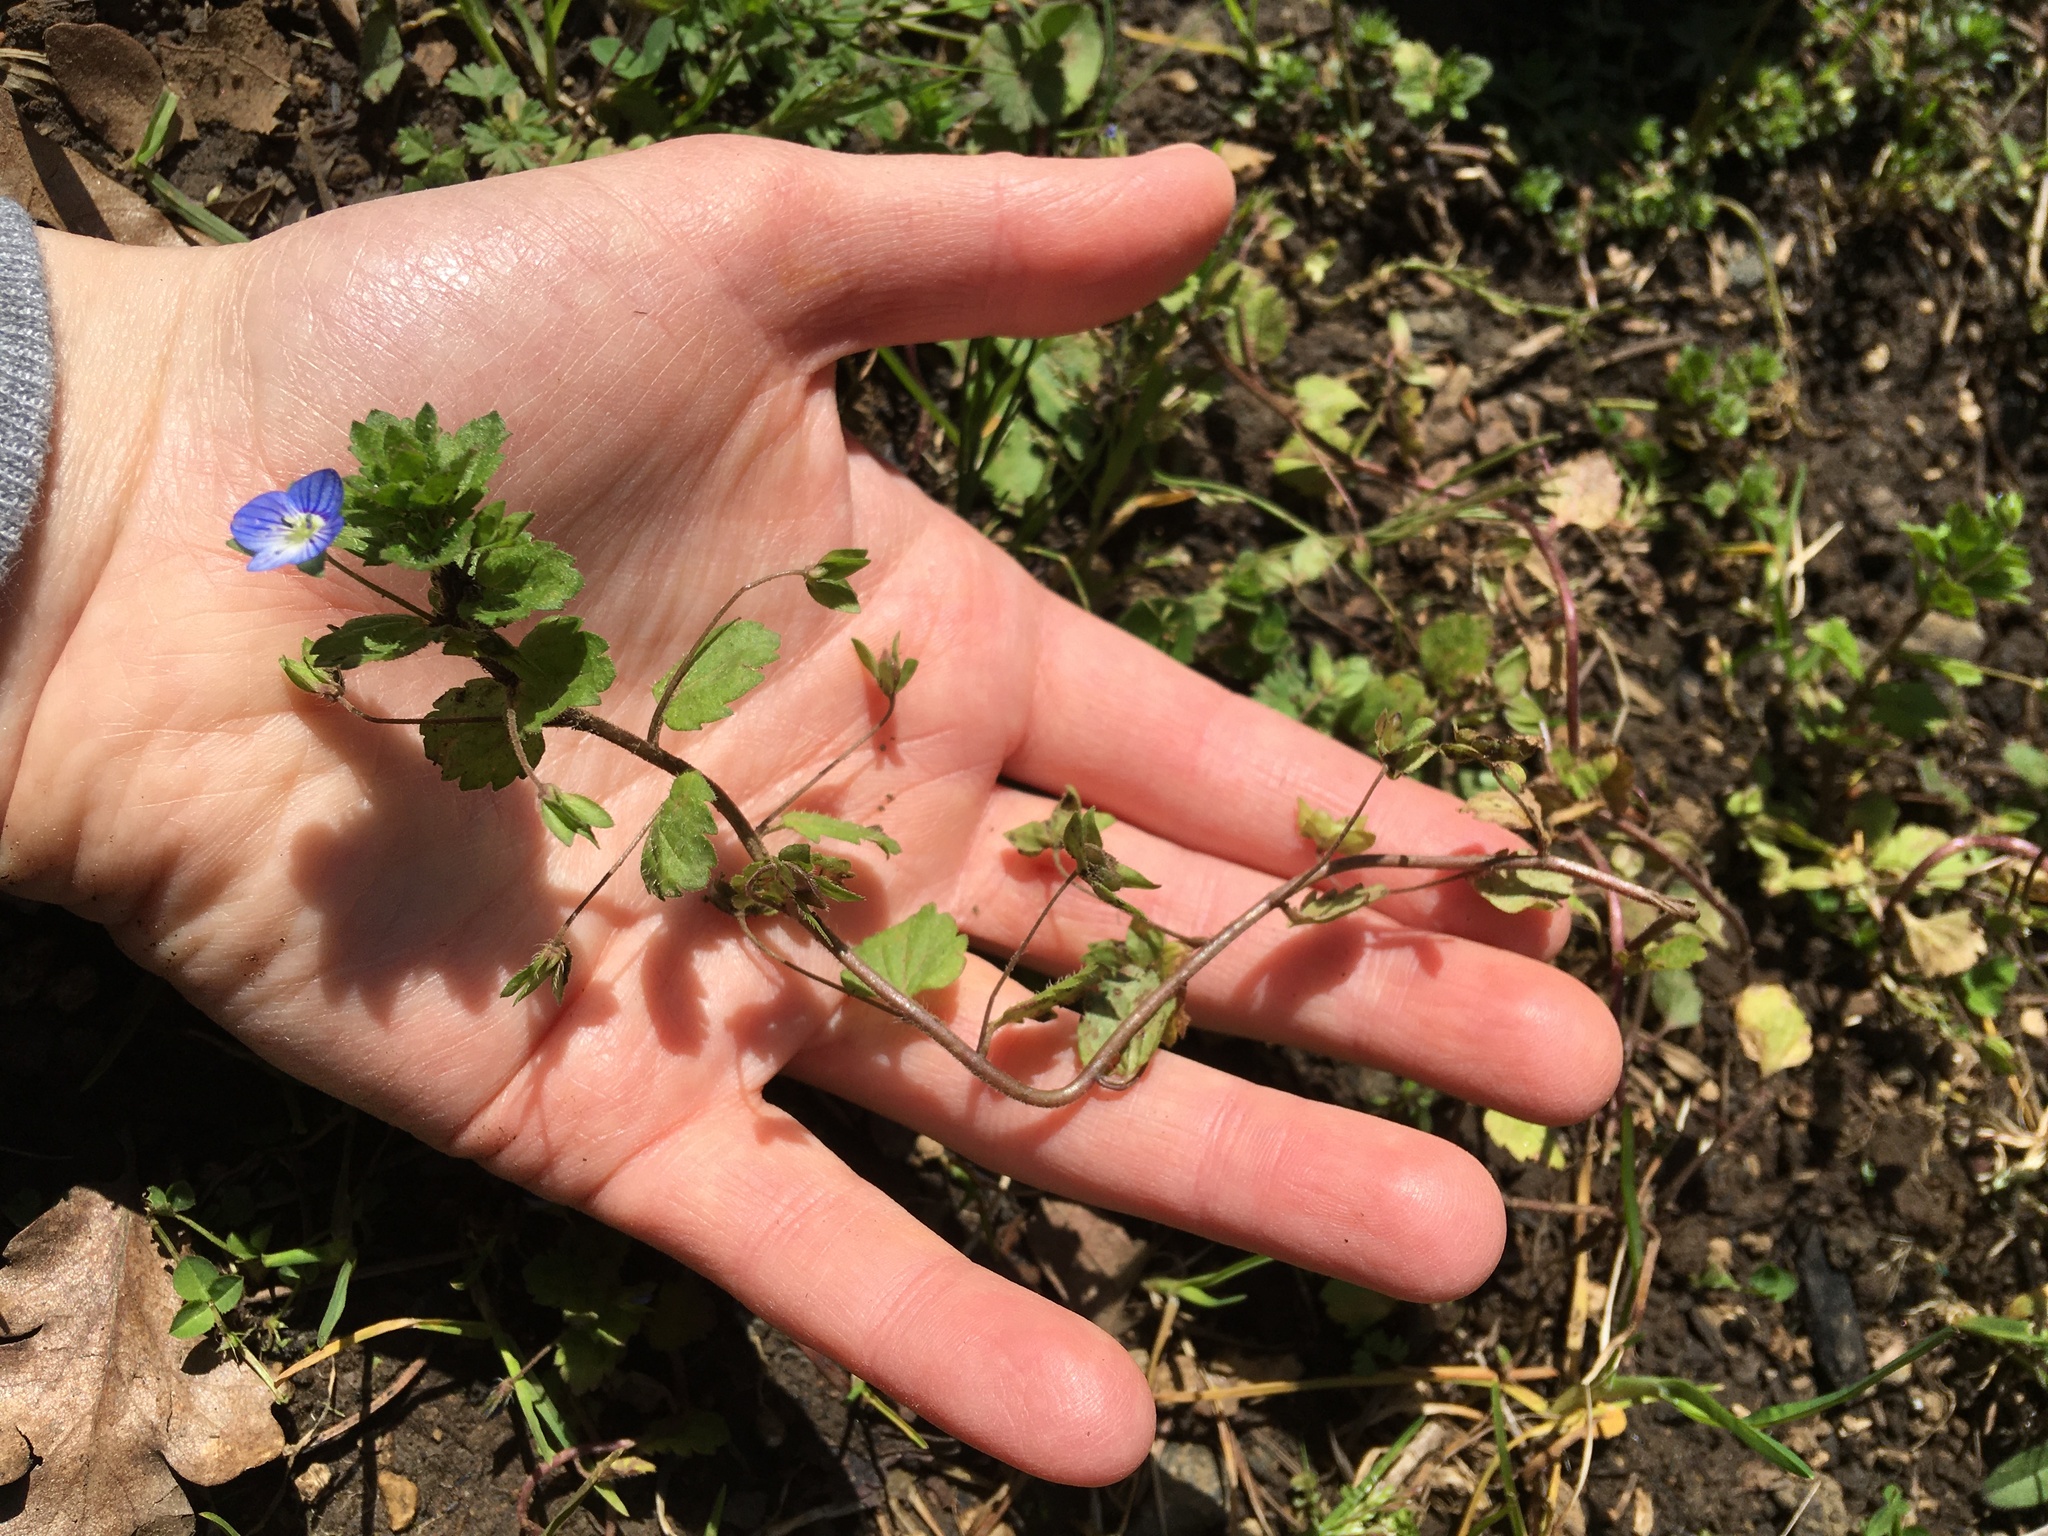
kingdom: Plantae
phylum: Tracheophyta
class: Magnoliopsida
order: Lamiales
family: Plantaginaceae
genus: Veronica
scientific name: Veronica persica
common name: Common field-speedwell
